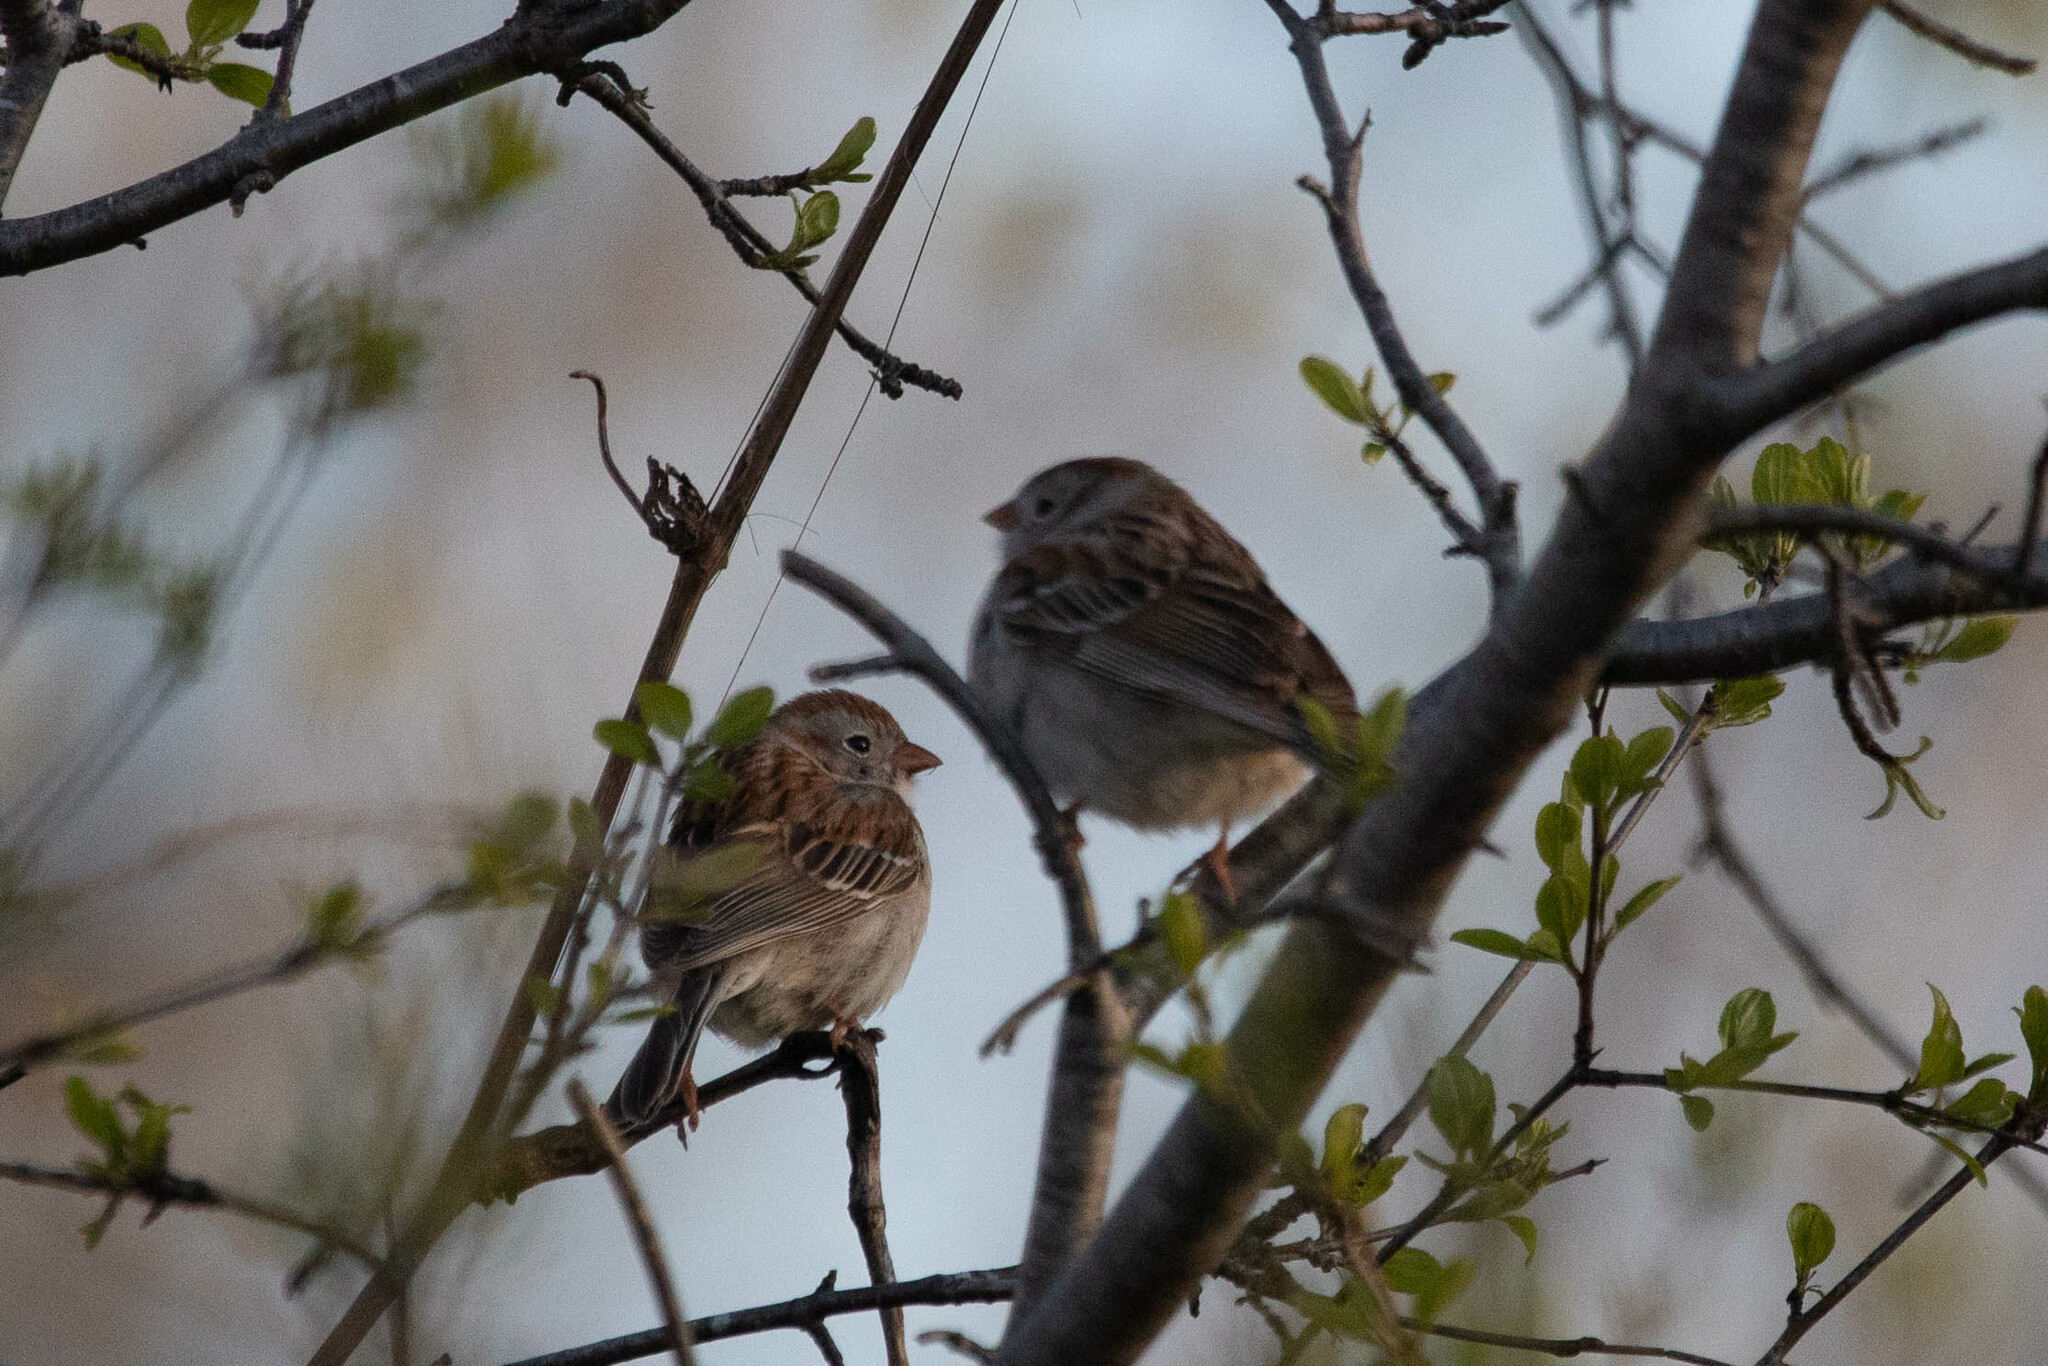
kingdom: Animalia
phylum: Chordata
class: Aves
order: Passeriformes
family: Passerellidae
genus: Spizella
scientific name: Spizella pusilla
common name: Field sparrow
